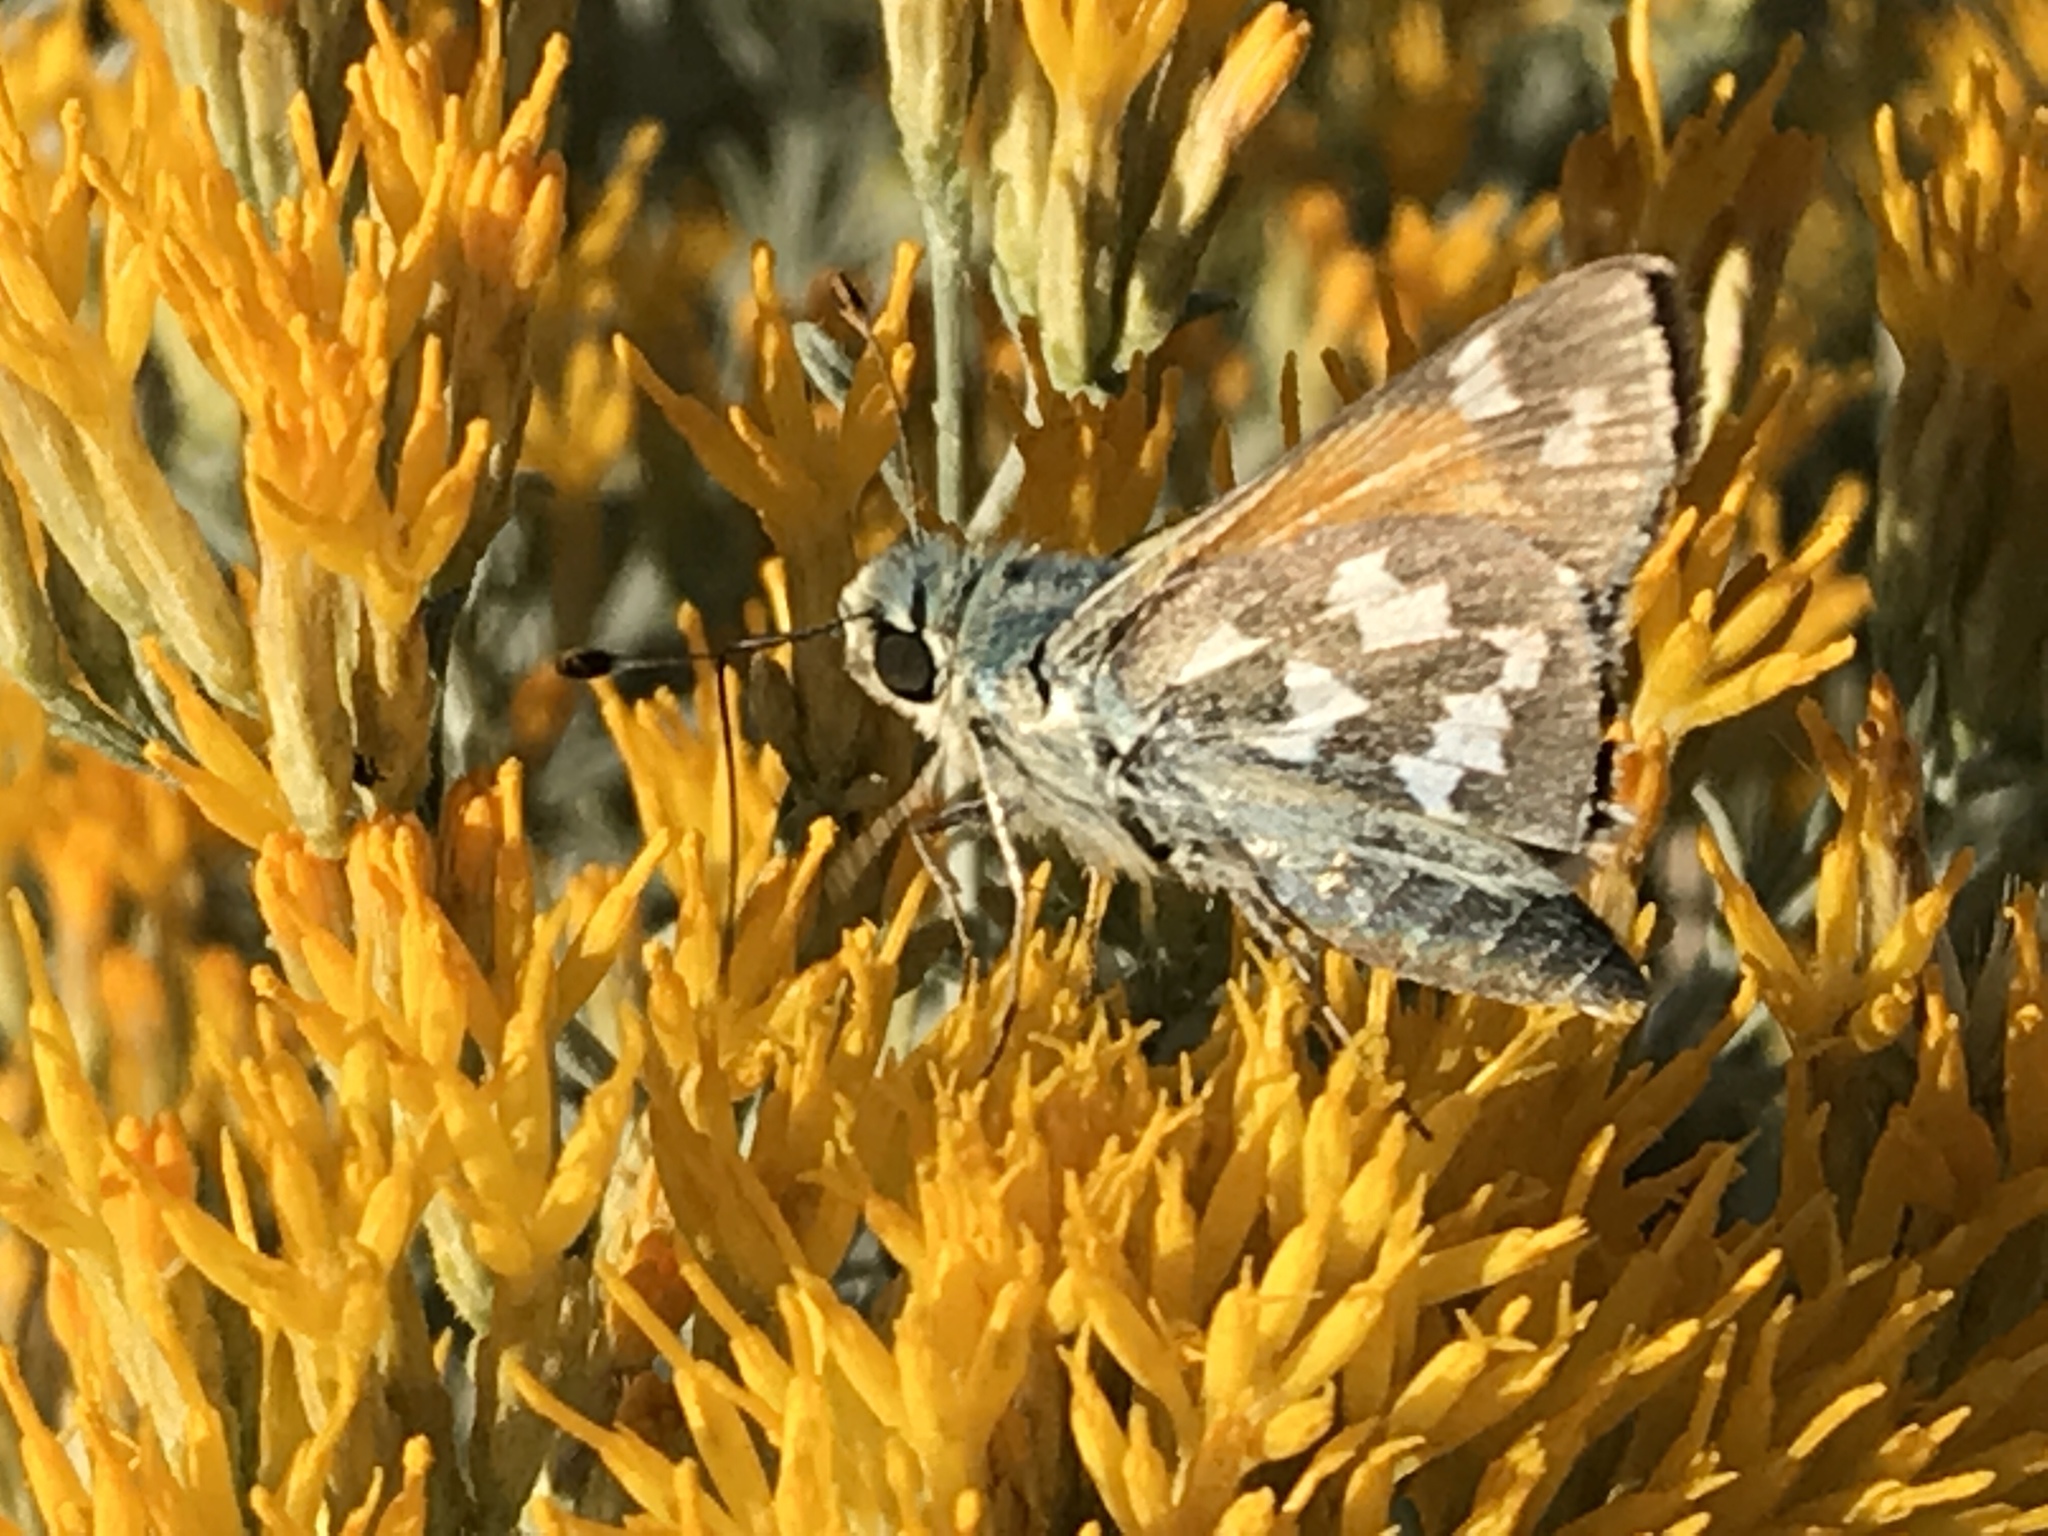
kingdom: Animalia
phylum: Arthropoda
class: Insecta
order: Lepidoptera
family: Hesperiidae
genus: Hesperia
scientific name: Hesperia juba
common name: Juba skipper
